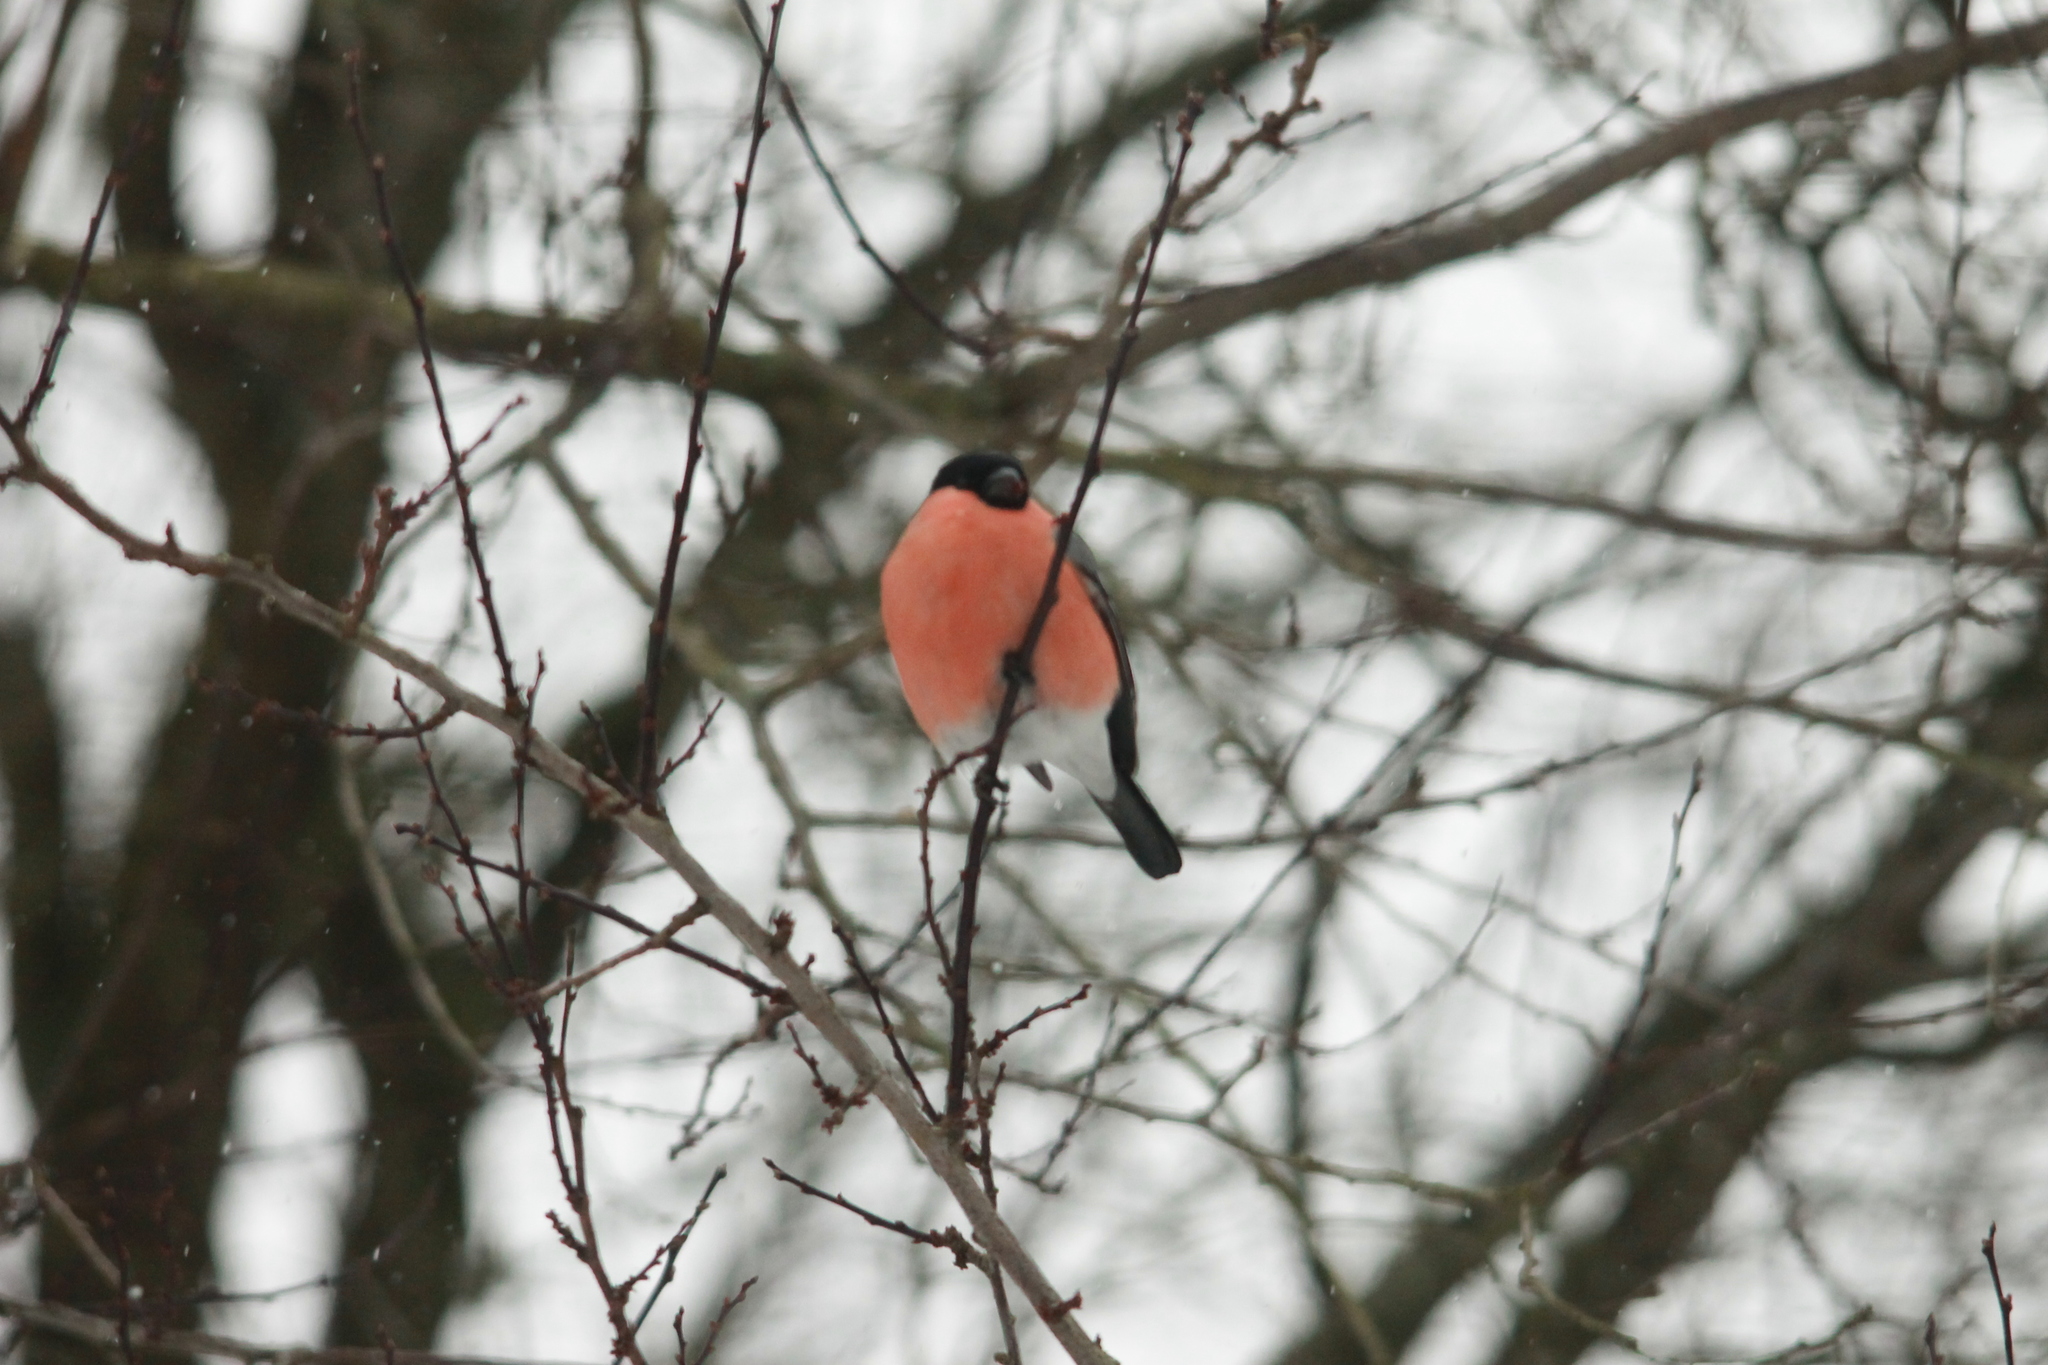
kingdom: Animalia
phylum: Chordata
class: Aves
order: Passeriformes
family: Fringillidae
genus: Pyrrhula
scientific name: Pyrrhula pyrrhula
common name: Eurasian bullfinch
